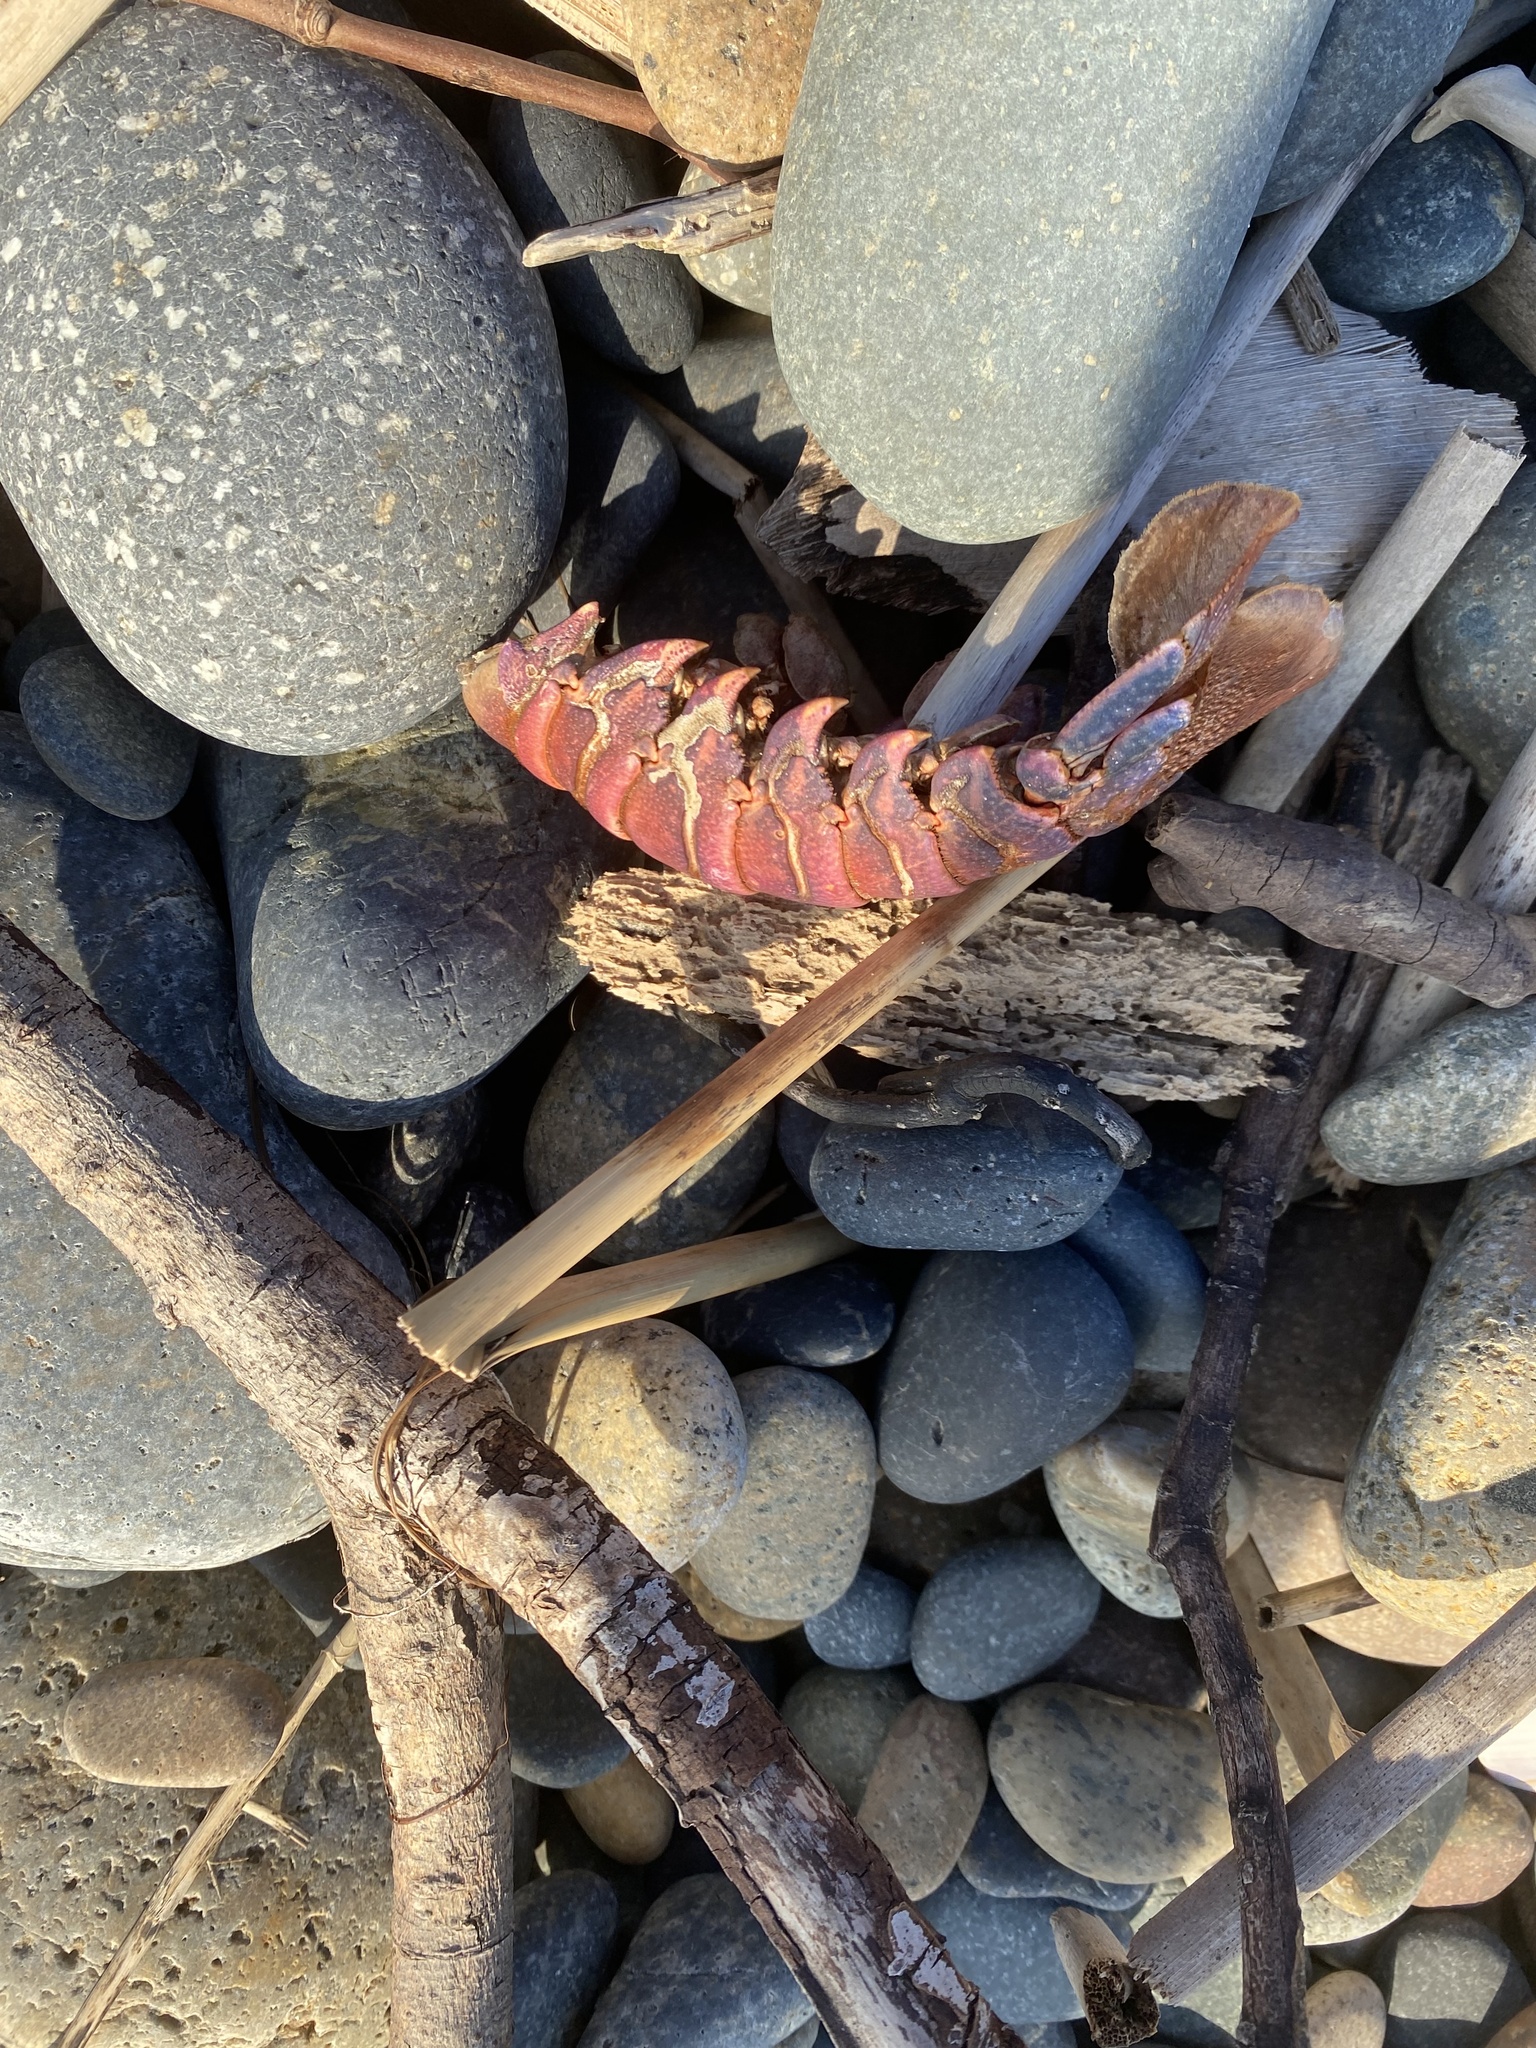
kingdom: Animalia
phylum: Arthropoda
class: Malacostraca
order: Decapoda
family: Palinuridae
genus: Panulirus
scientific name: Panulirus interruptus
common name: California spiny lobster
